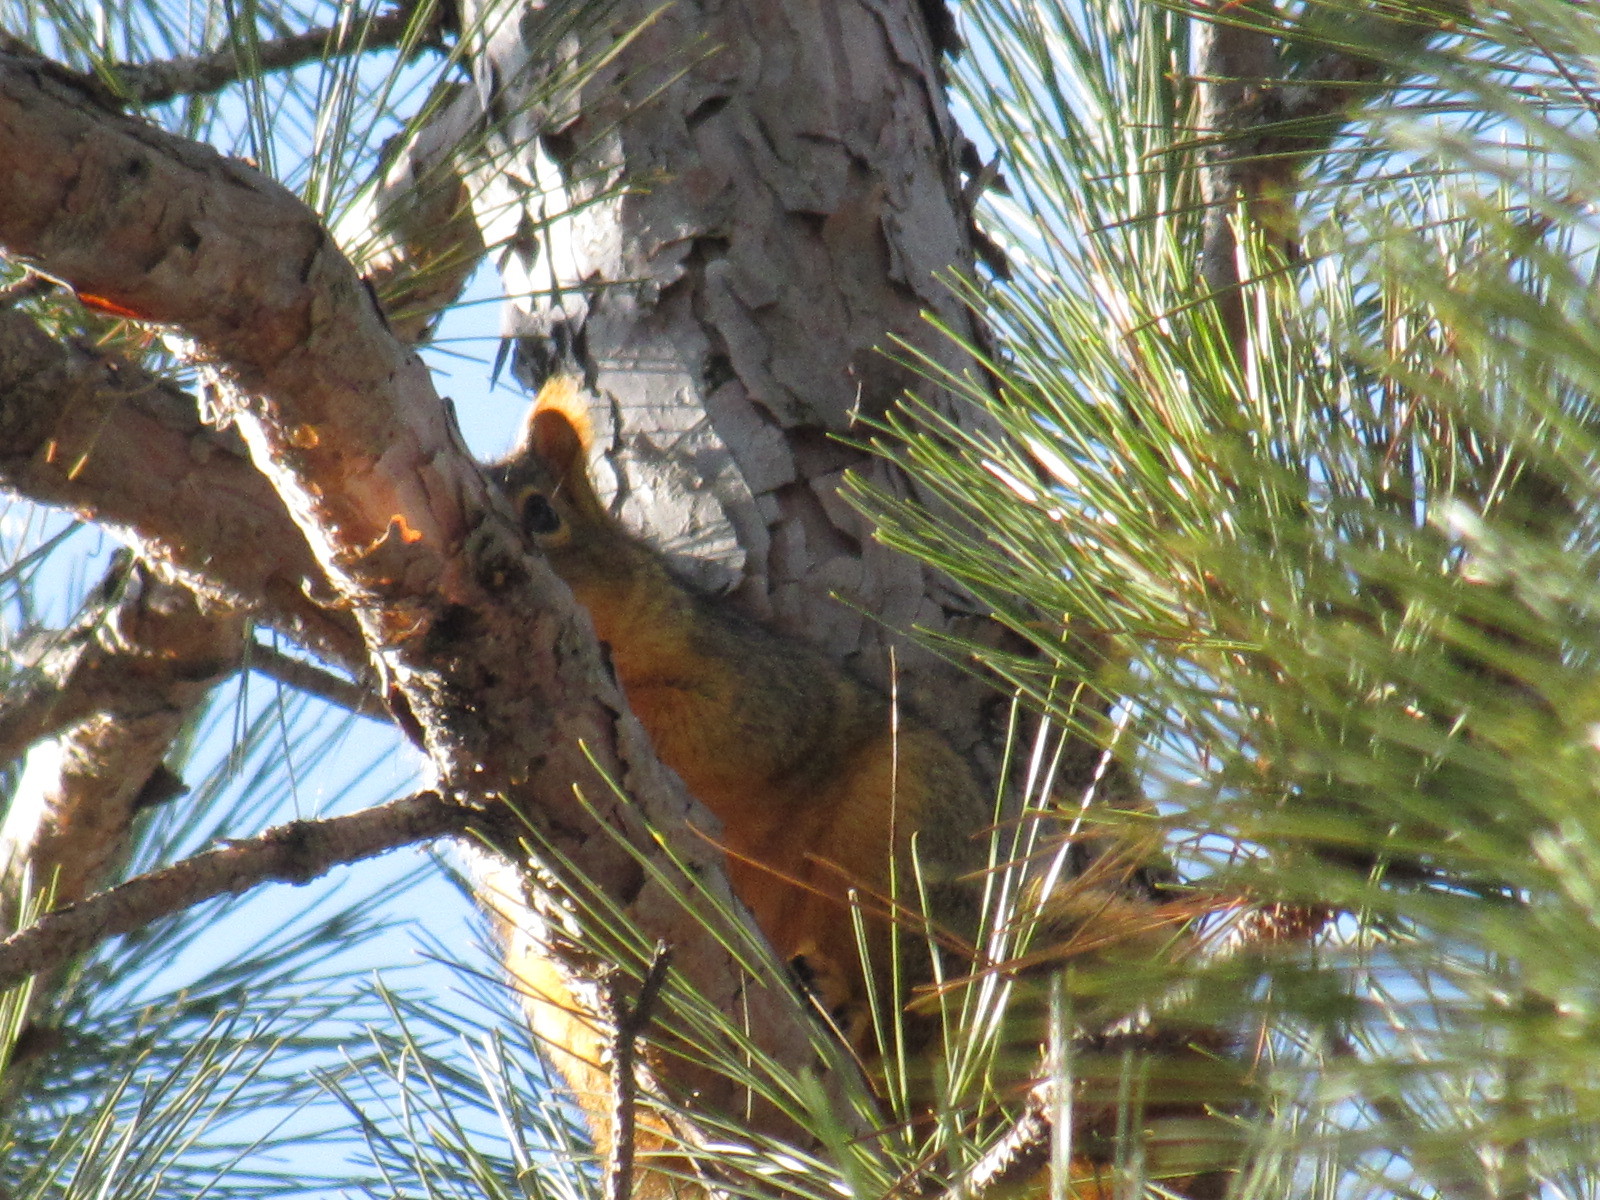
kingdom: Animalia
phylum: Chordata
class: Mammalia
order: Rodentia
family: Sciuridae
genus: Sciurus
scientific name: Sciurus niger
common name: Fox squirrel
